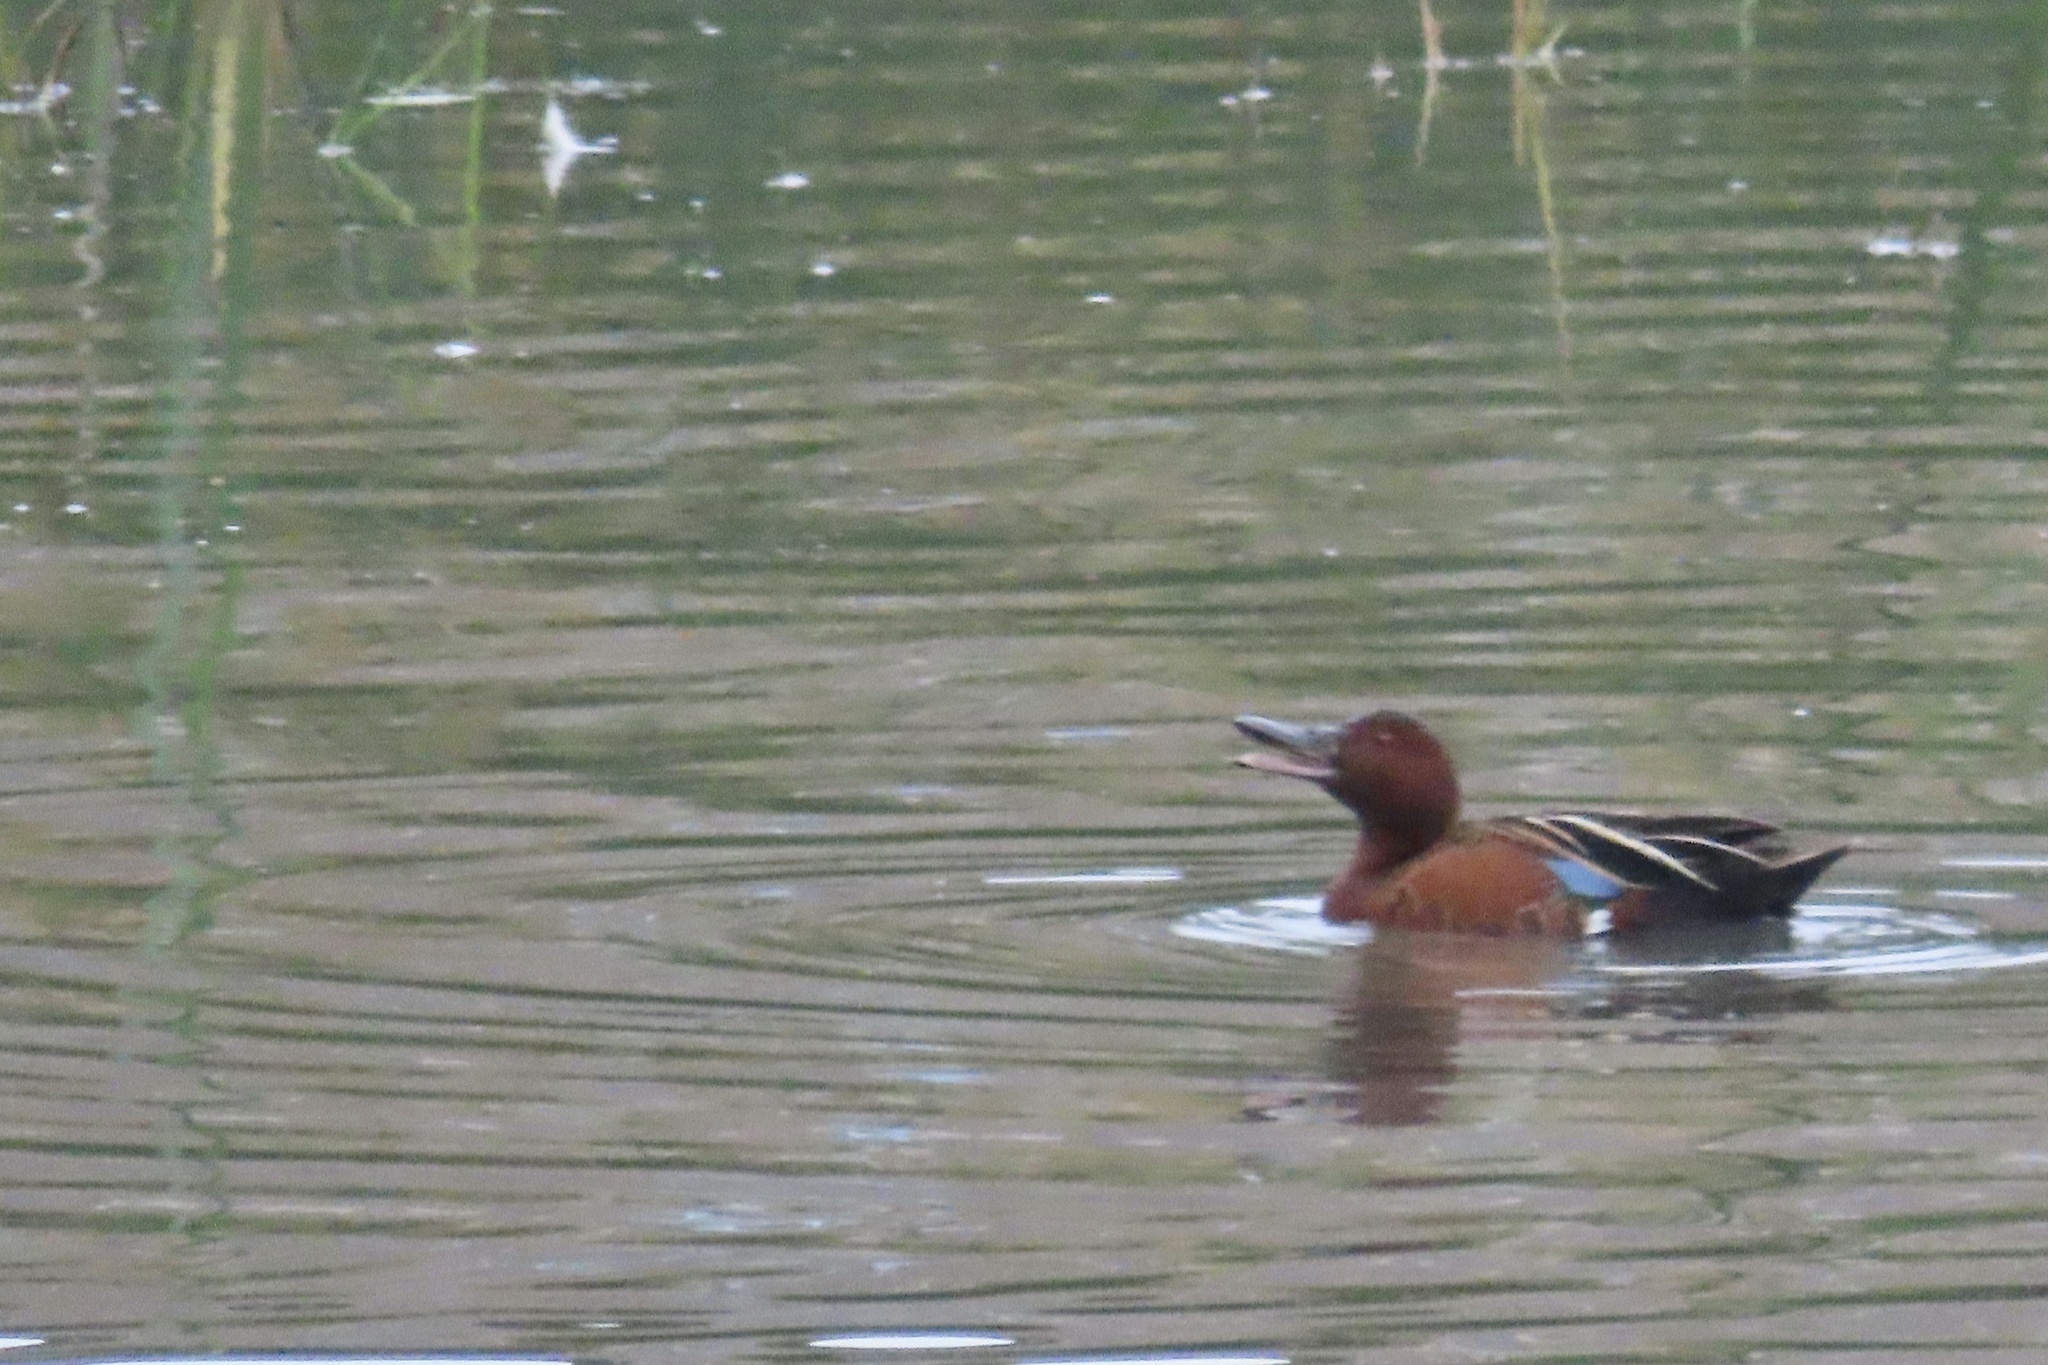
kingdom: Animalia
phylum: Chordata
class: Aves
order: Anseriformes
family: Anatidae
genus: Spatula
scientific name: Spatula cyanoptera
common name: Cinnamon teal
